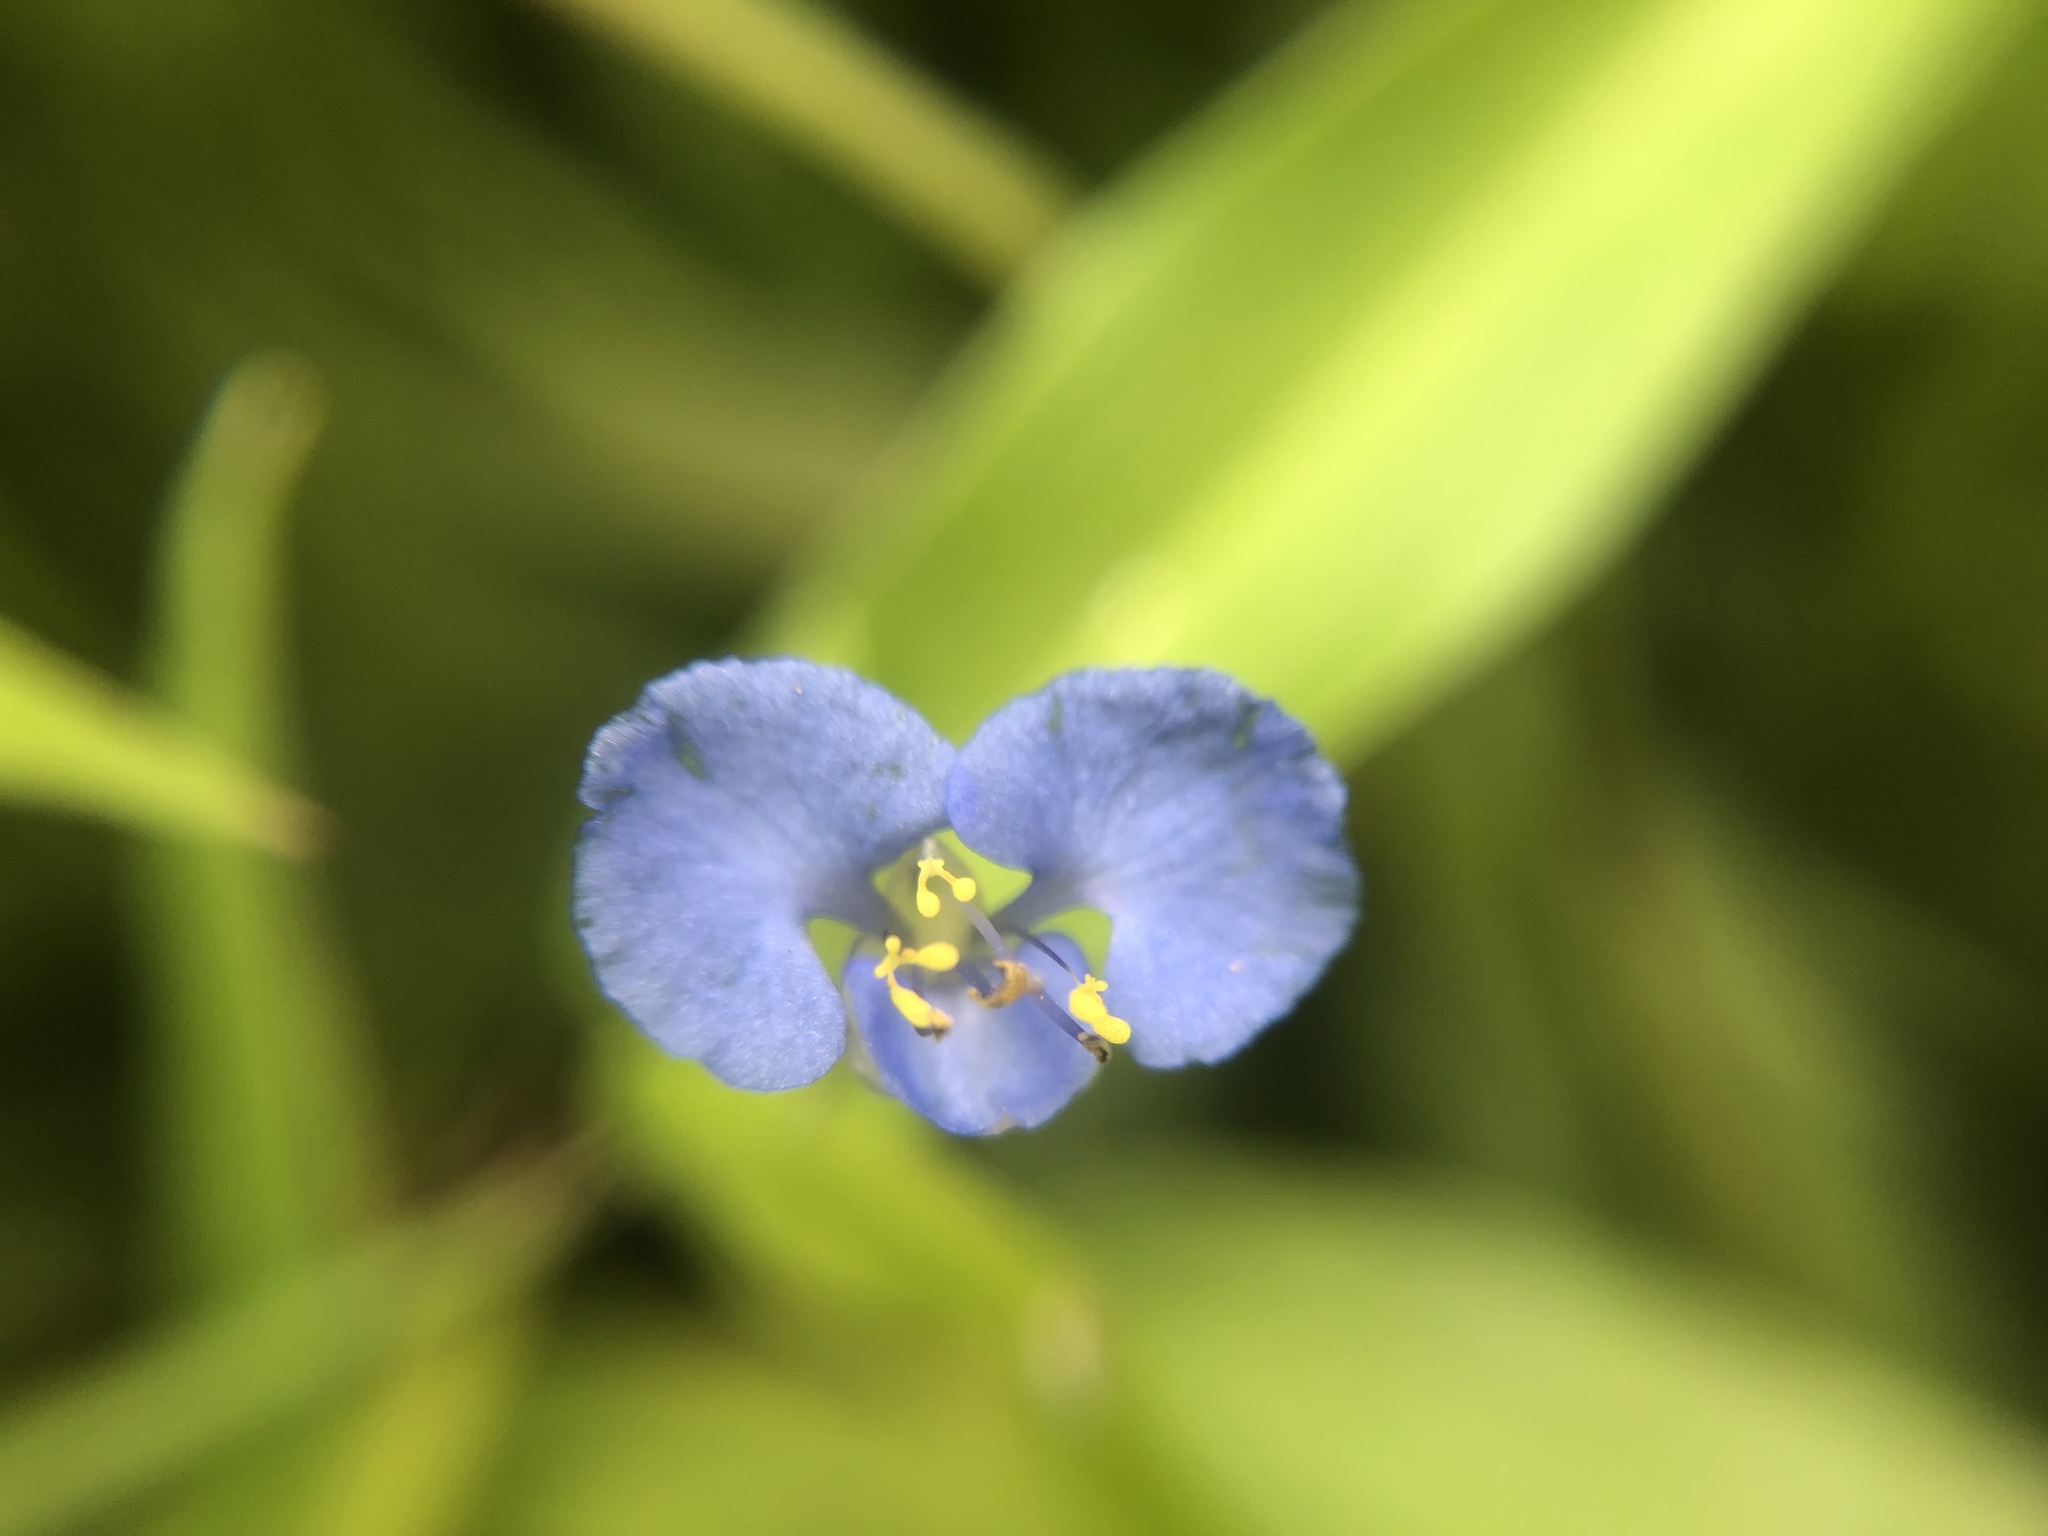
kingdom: Plantae
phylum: Tracheophyta
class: Liliopsida
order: Commelinales
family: Commelinaceae
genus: Commelina
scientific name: Commelina diffusa
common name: Climbing dayflower
